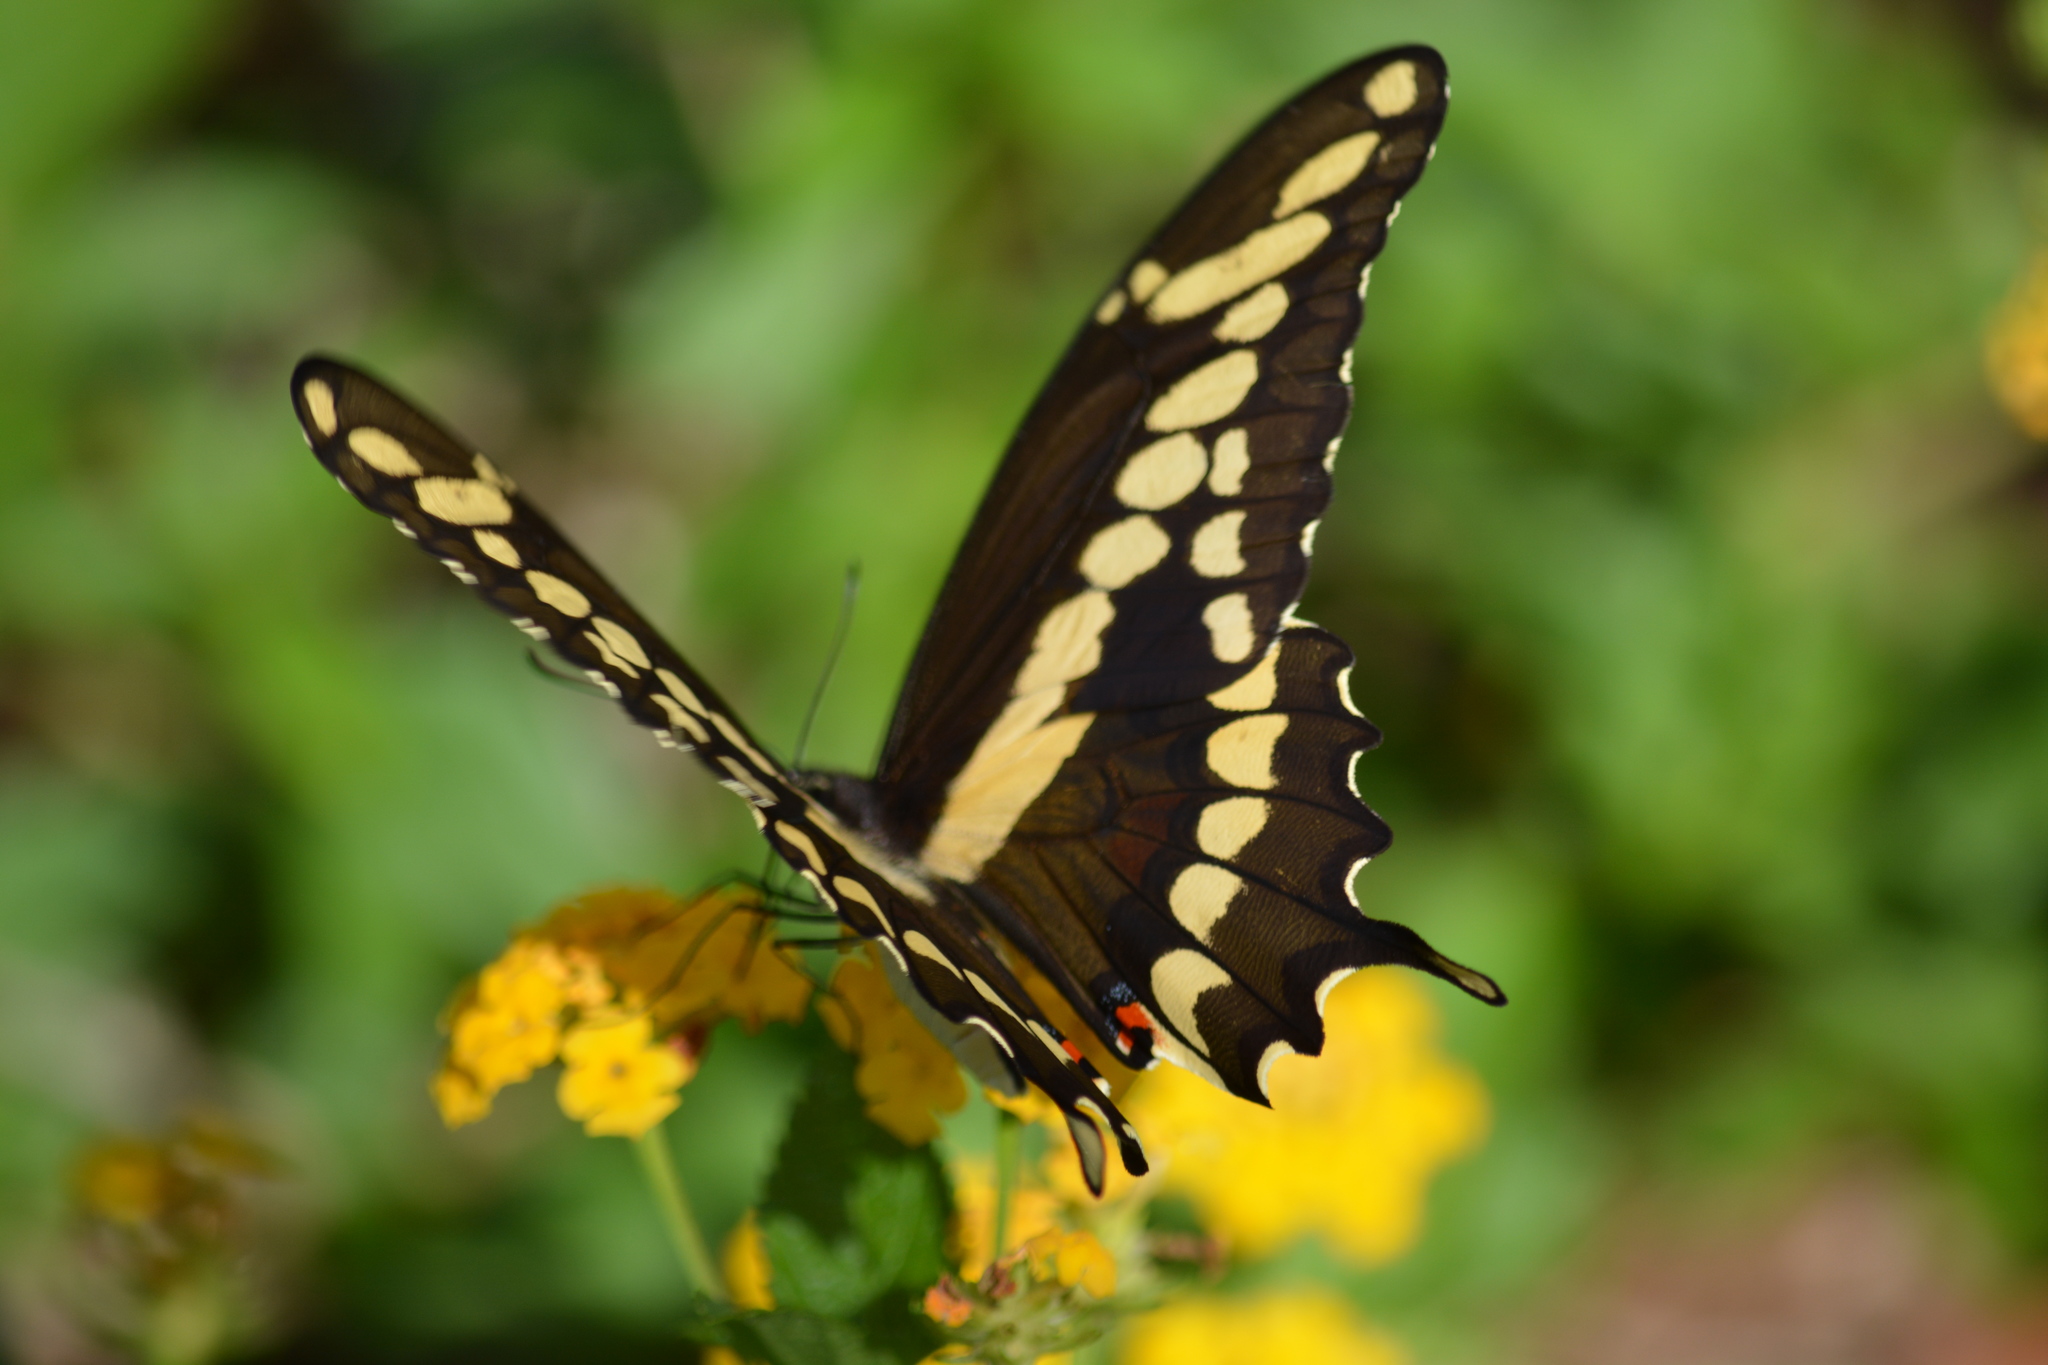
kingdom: Animalia
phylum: Arthropoda
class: Insecta
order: Lepidoptera
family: Papilionidae
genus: Papilio
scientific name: Papilio cresphontes
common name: Giant swallowtail
